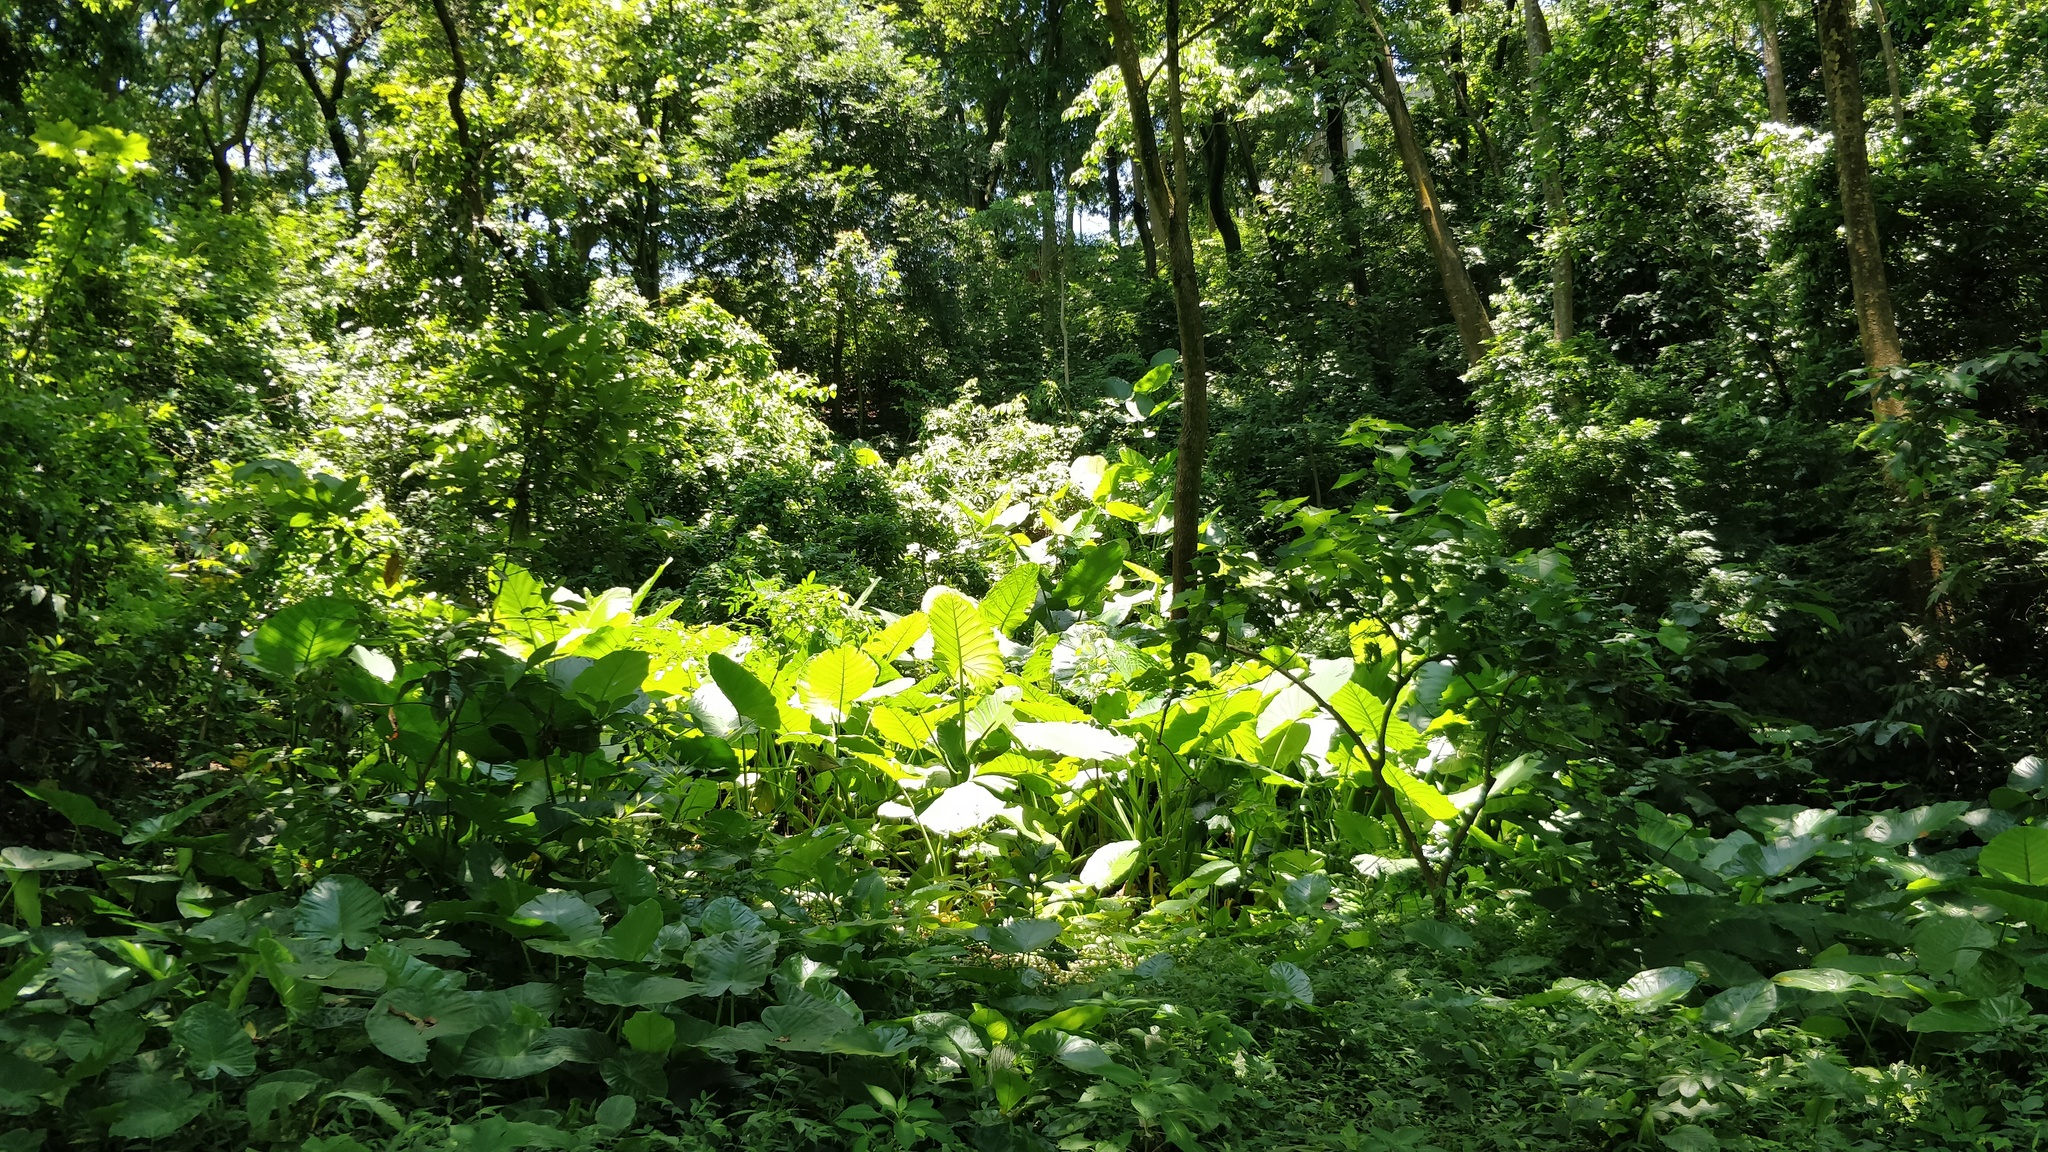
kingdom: Plantae
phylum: Tracheophyta
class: Liliopsida
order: Alismatales
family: Araceae
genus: Alocasia
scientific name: Alocasia odora
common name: Asian taro
